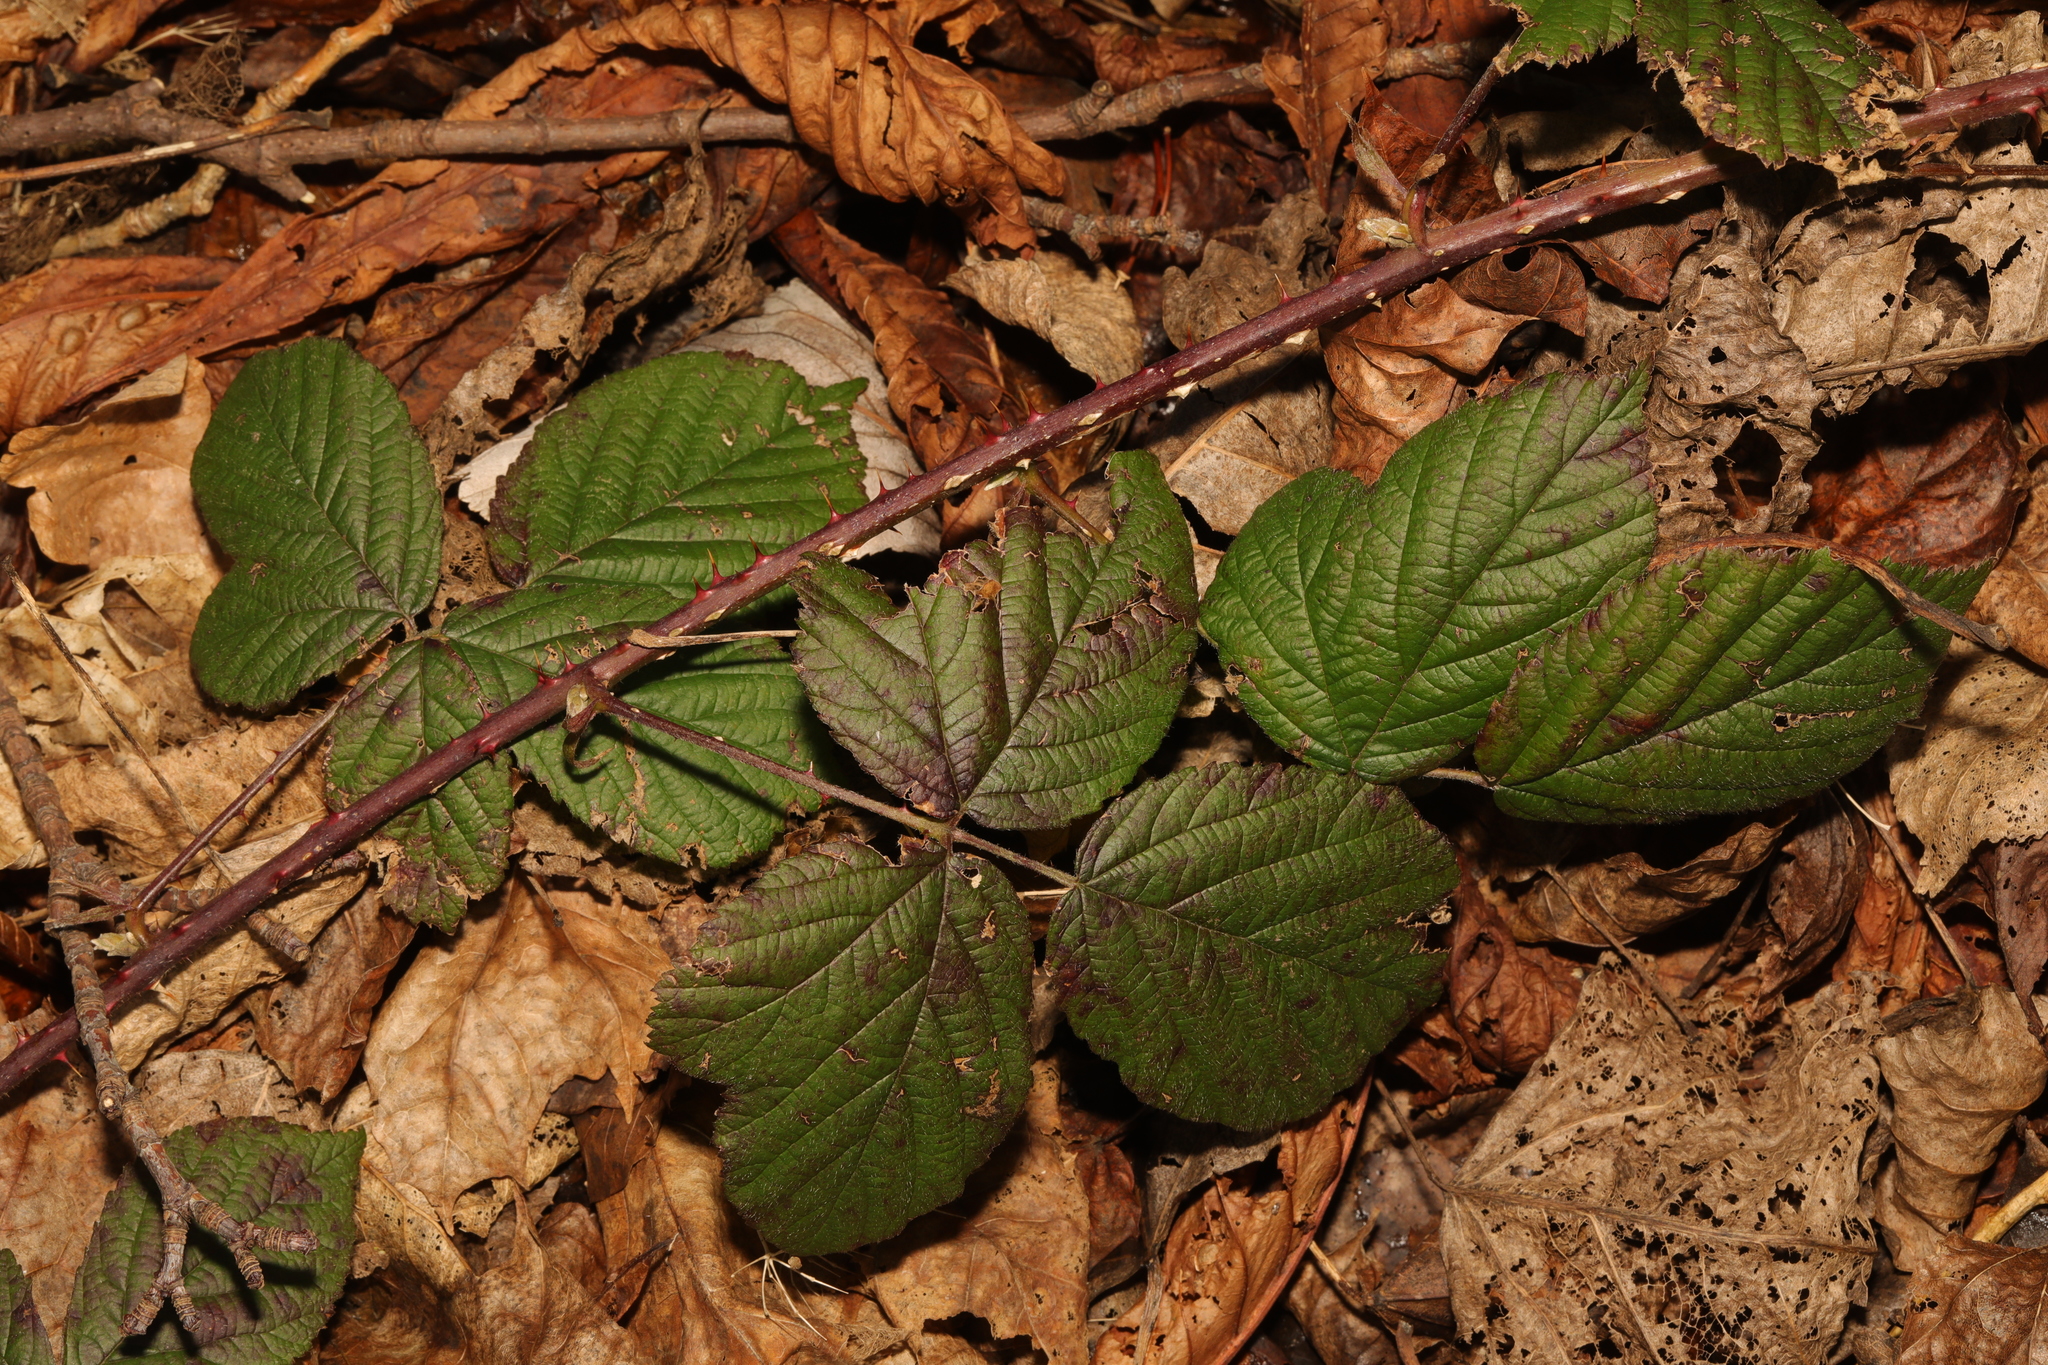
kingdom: Plantae
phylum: Tracheophyta
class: Magnoliopsida
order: Rosales
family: Rosaceae
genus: Rubus
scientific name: Rubus fruticosus
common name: Blackberry, bramble
